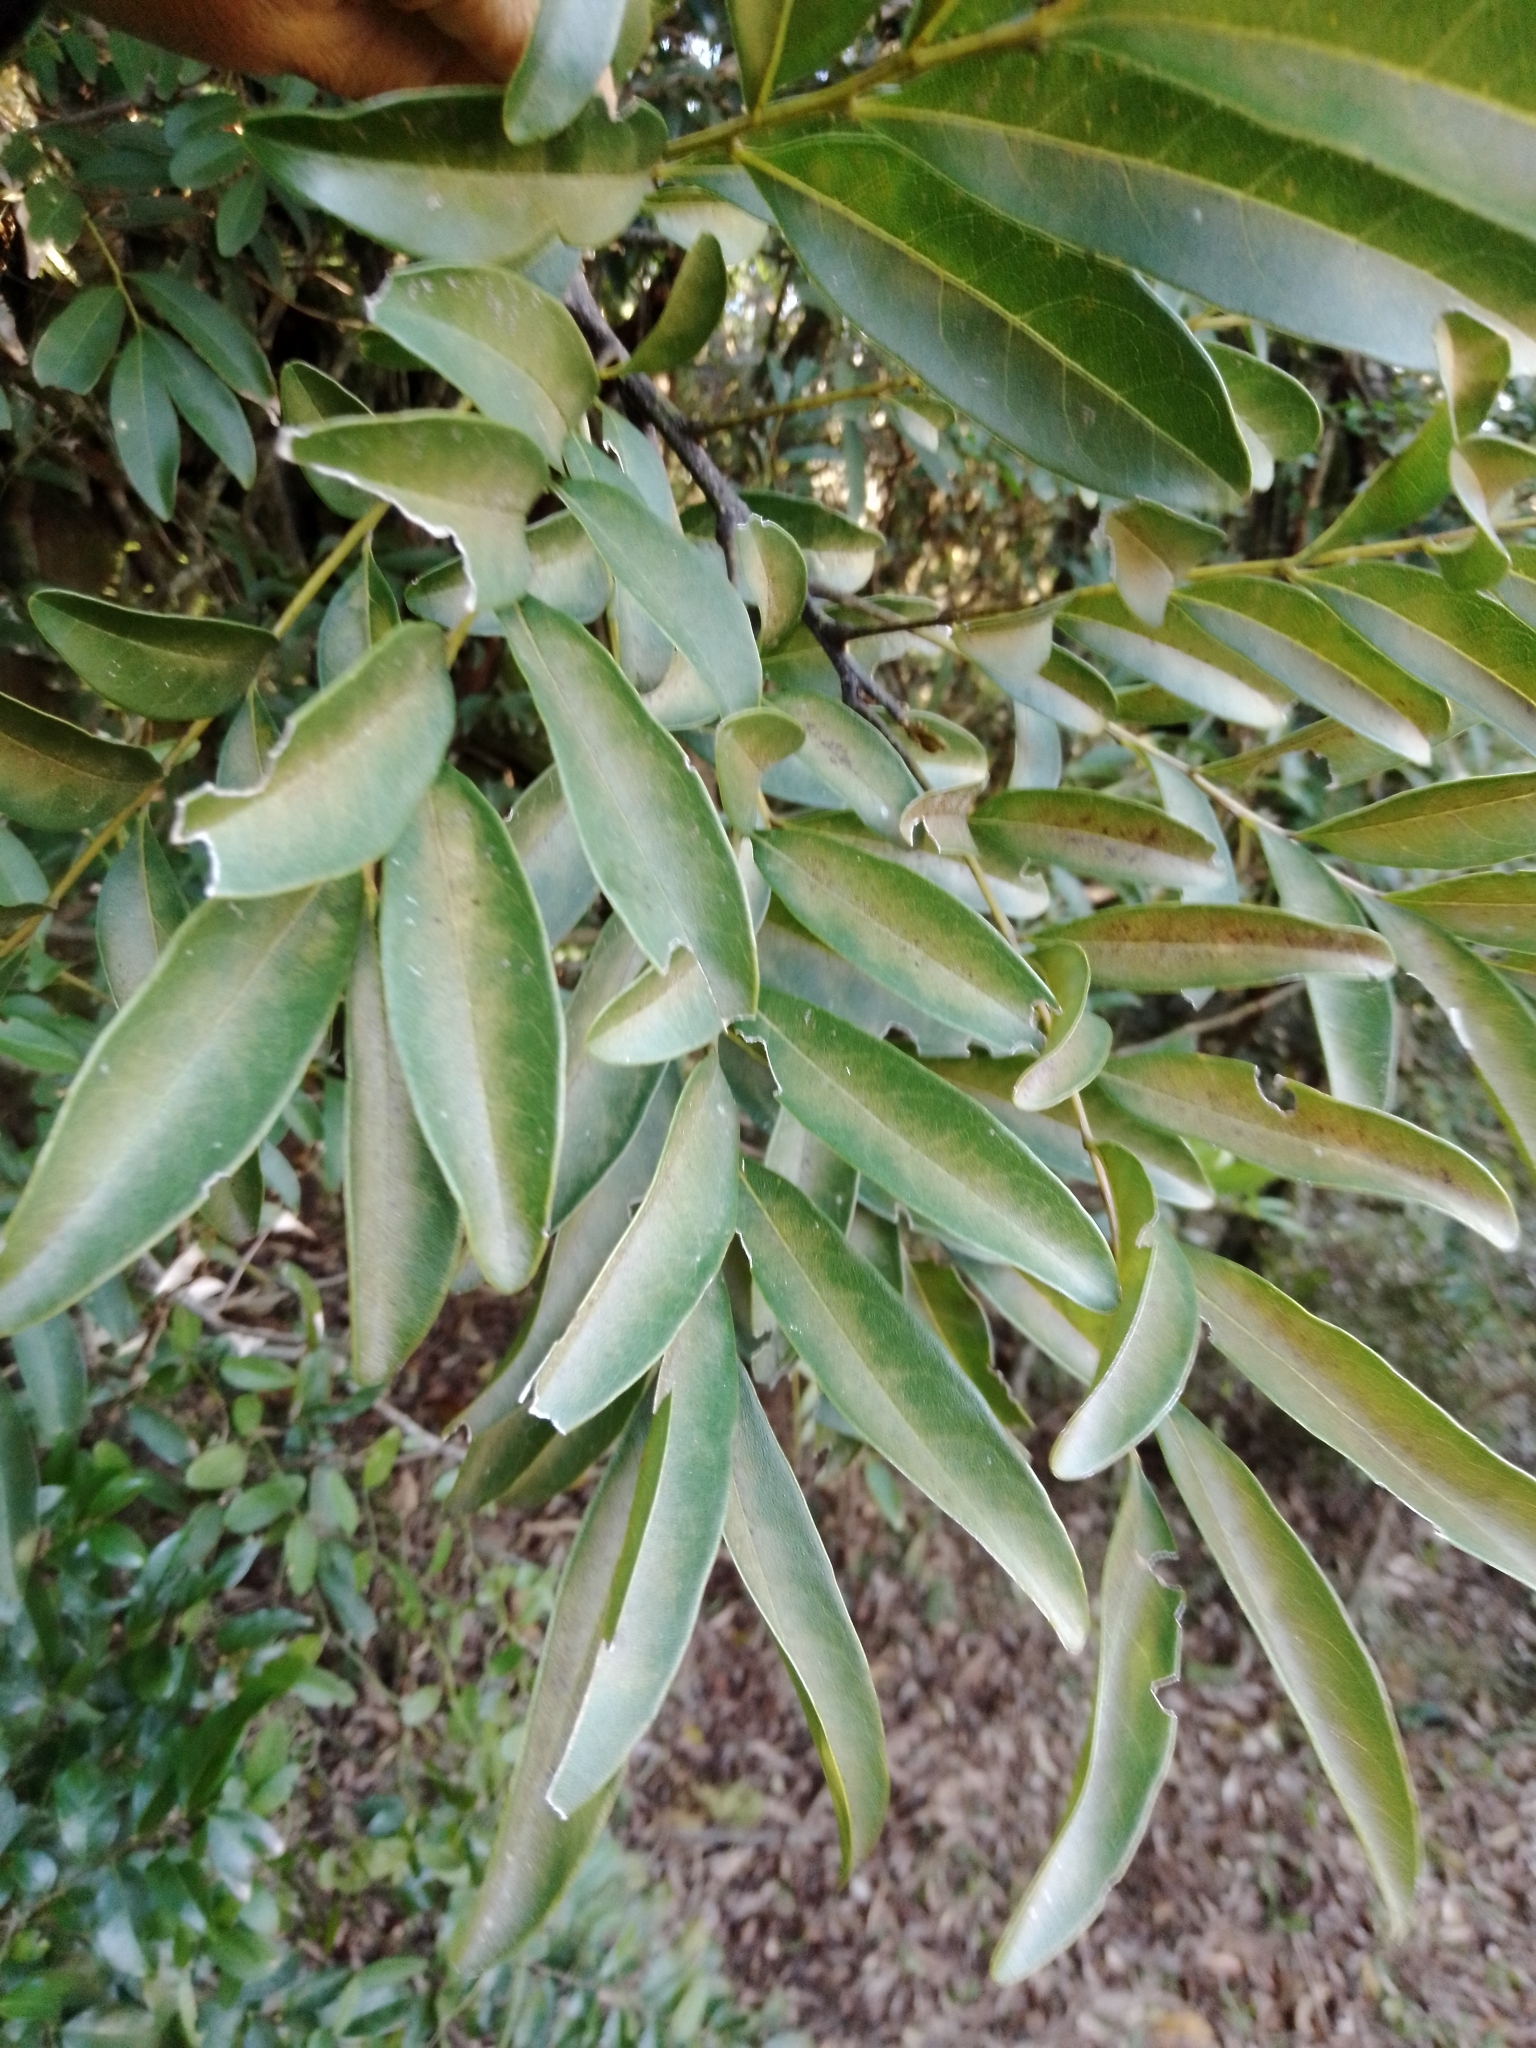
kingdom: Plantae
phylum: Tracheophyta
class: Magnoliopsida
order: Sapindales
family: Sapindaceae
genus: Matayba
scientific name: Matayba elaeagnoides
